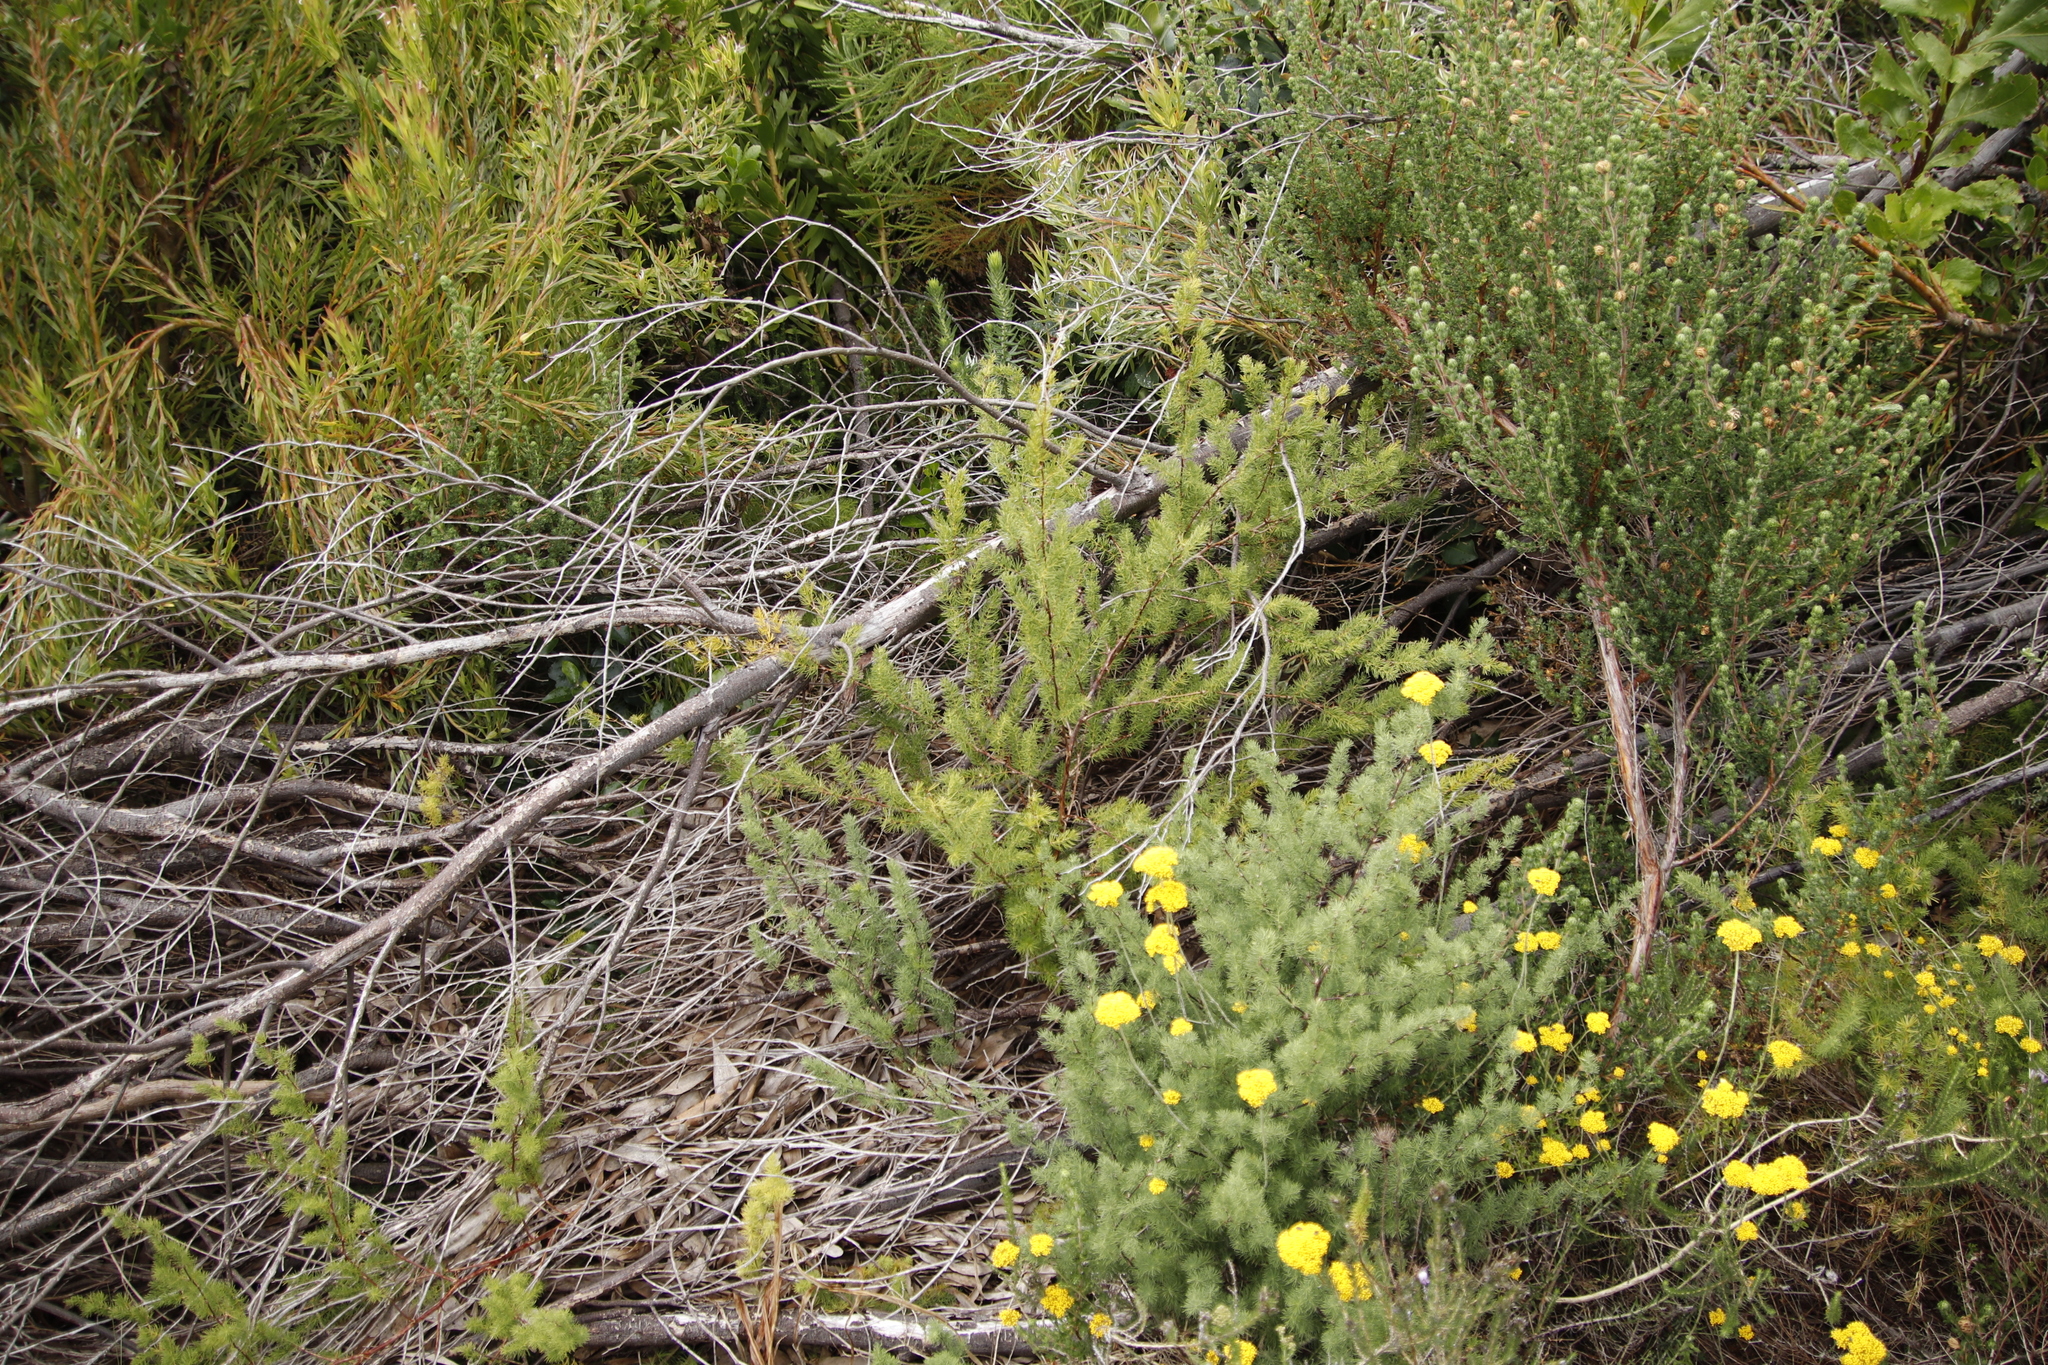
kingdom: Plantae
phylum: Tracheophyta
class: Liliopsida
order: Asparagales
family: Asparagaceae
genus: Asparagus
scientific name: Asparagus rubicundus
